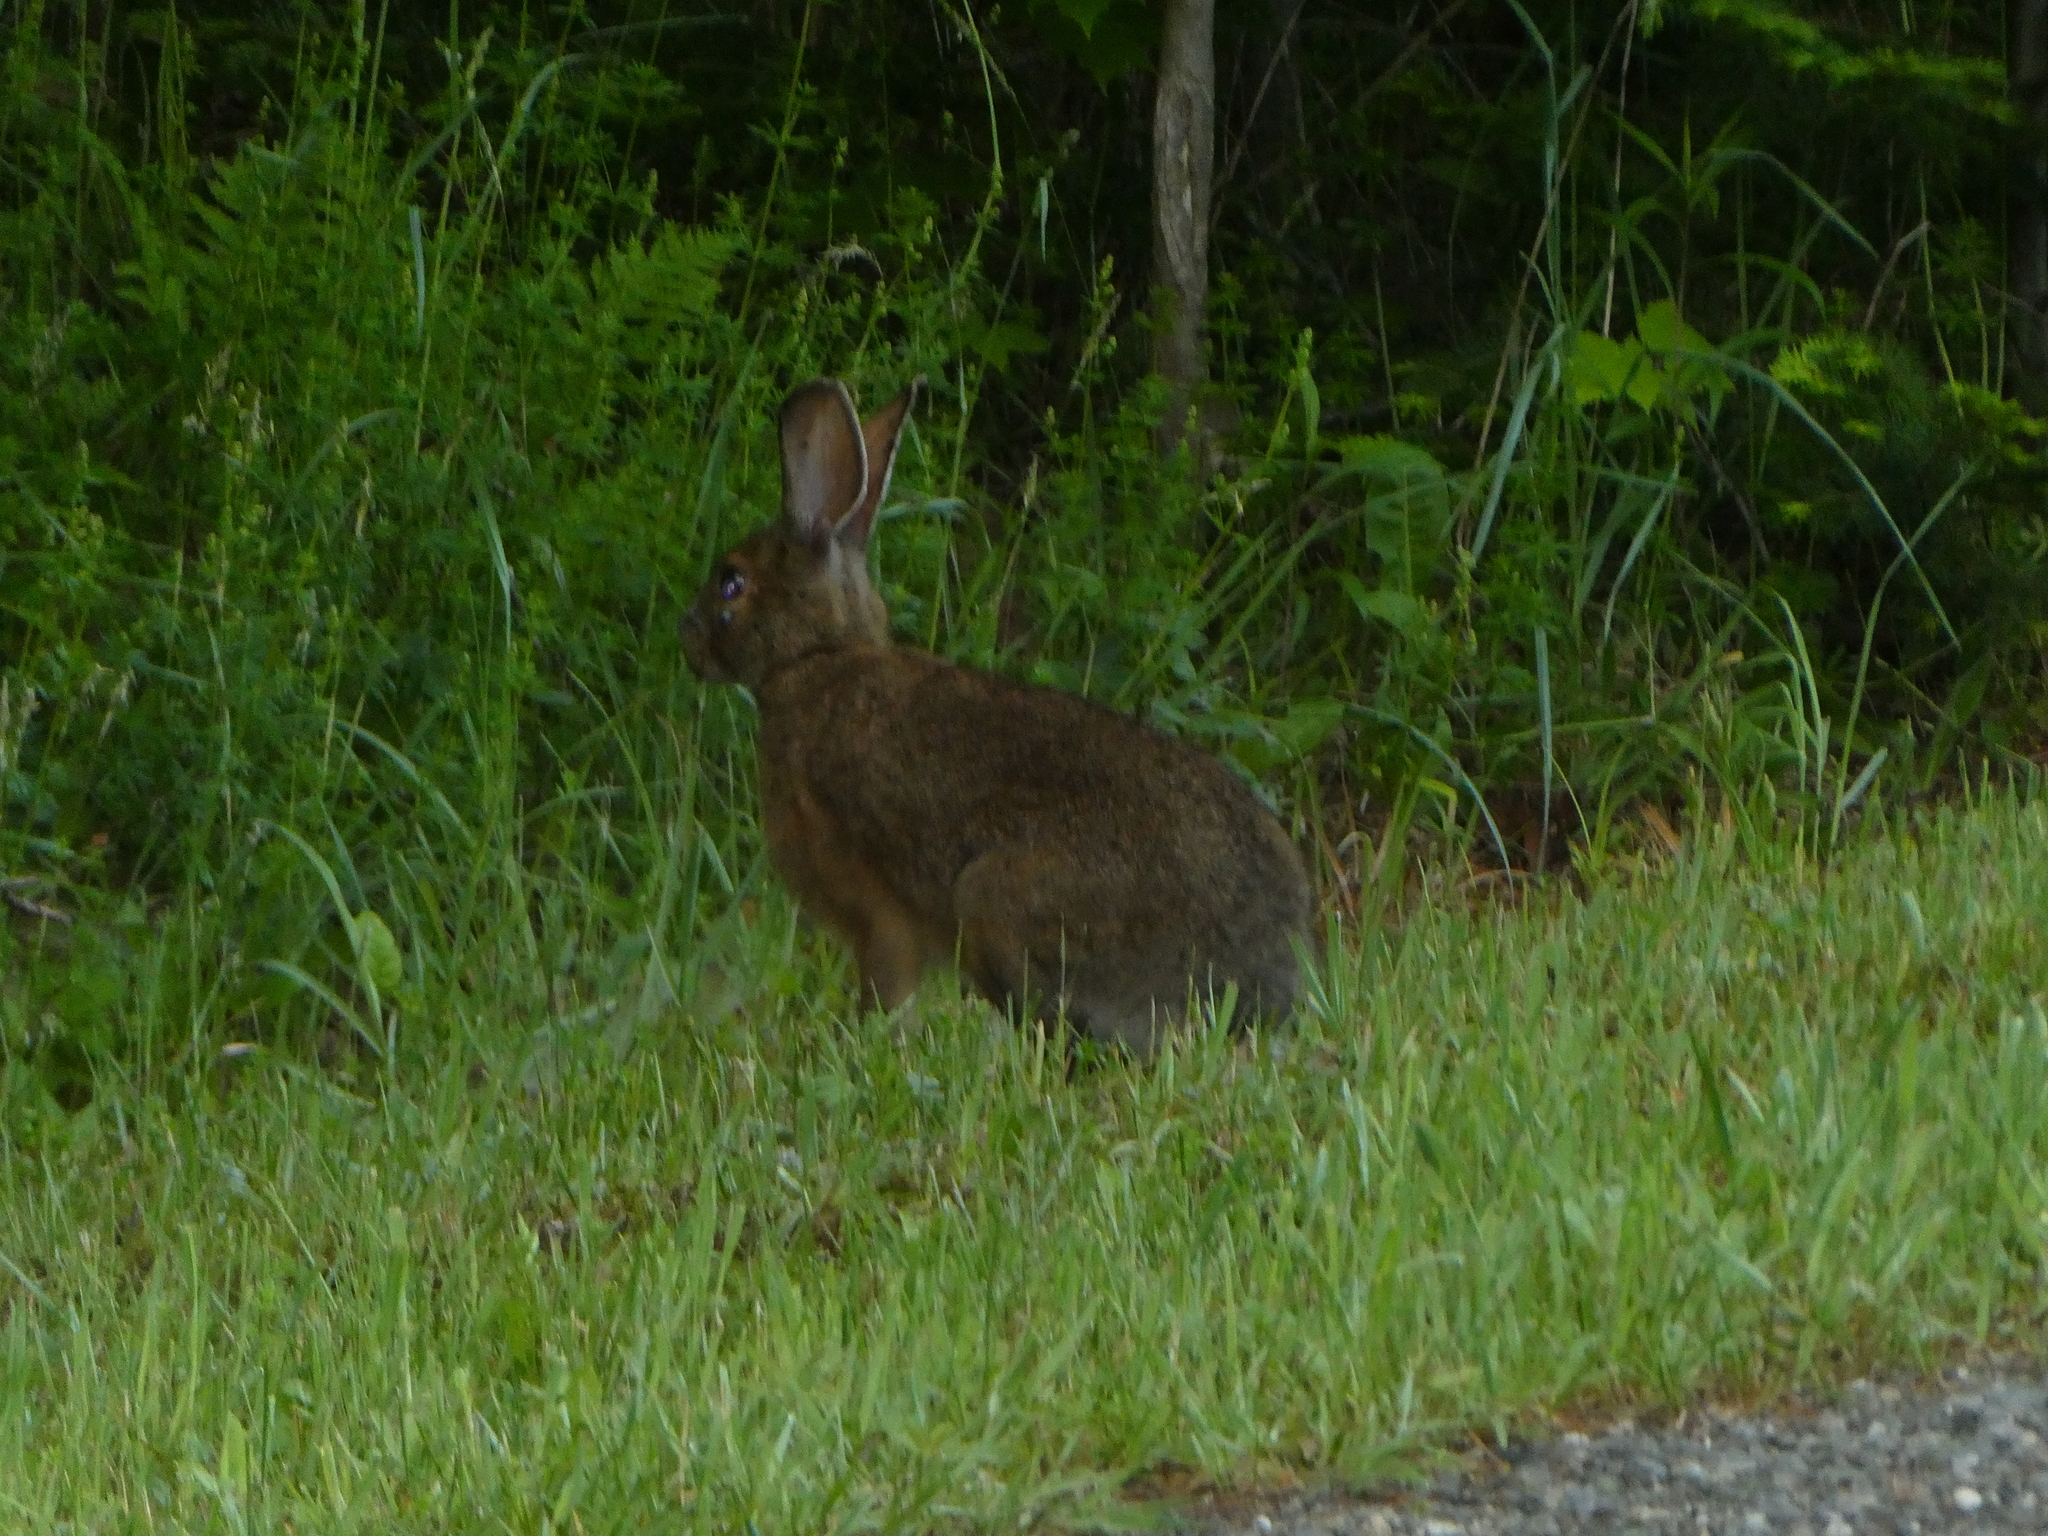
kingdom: Animalia
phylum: Chordata
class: Mammalia
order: Lagomorpha
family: Leporidae
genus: Lepus
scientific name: Lepus americanus
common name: Snowshoe hare
